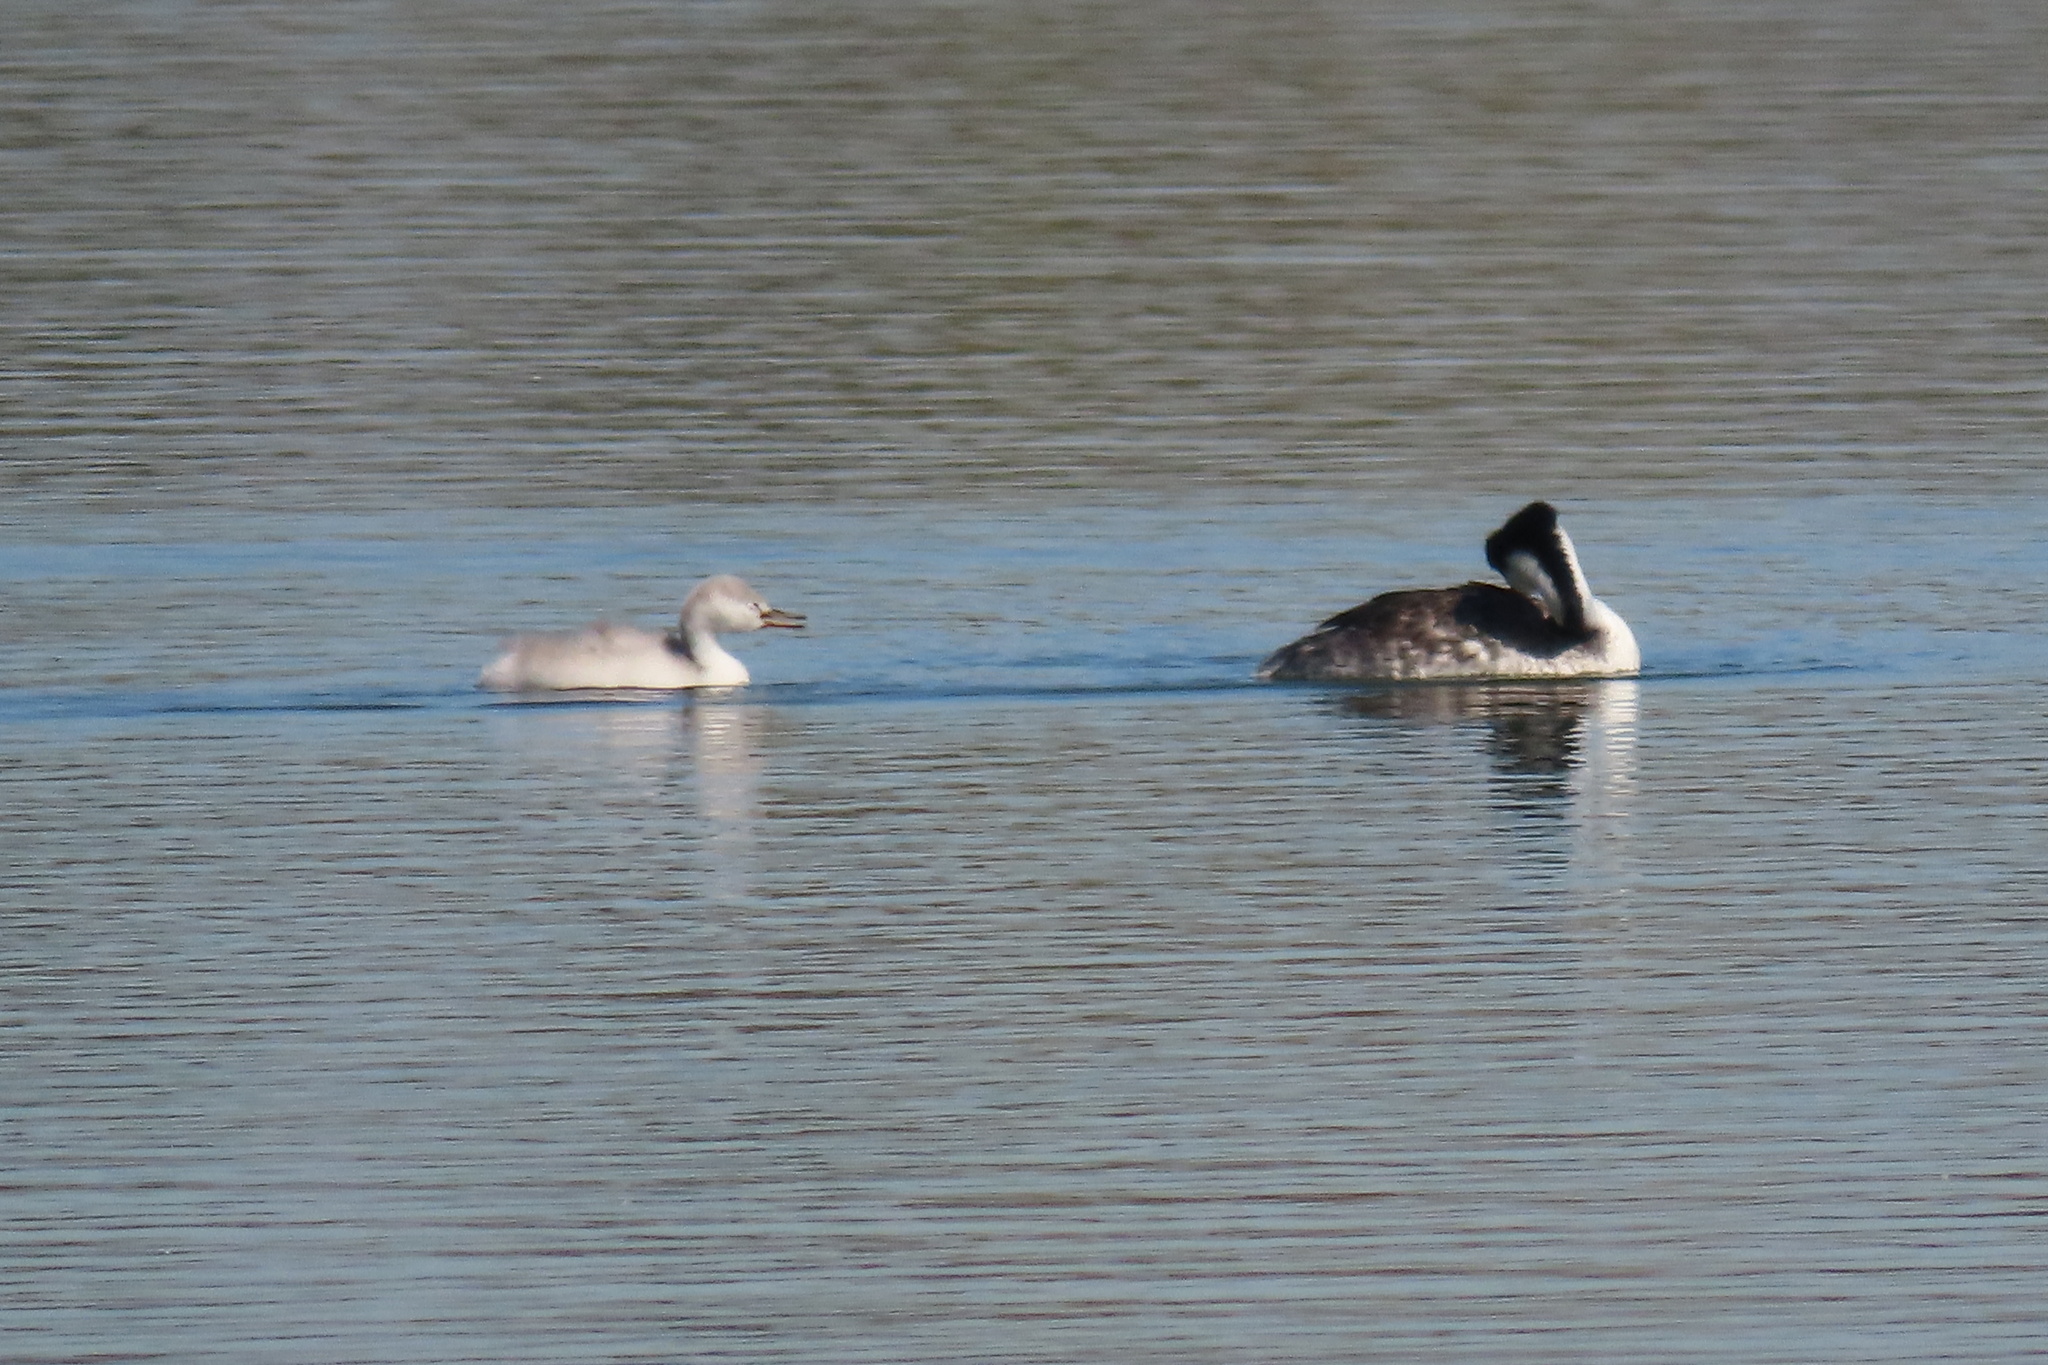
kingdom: Animalia
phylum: Chordata
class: Aves
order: Podicipediformes
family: Podicipedidae
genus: Aechmophorus
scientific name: Aechmophorus clarkii
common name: Clark's grebe
